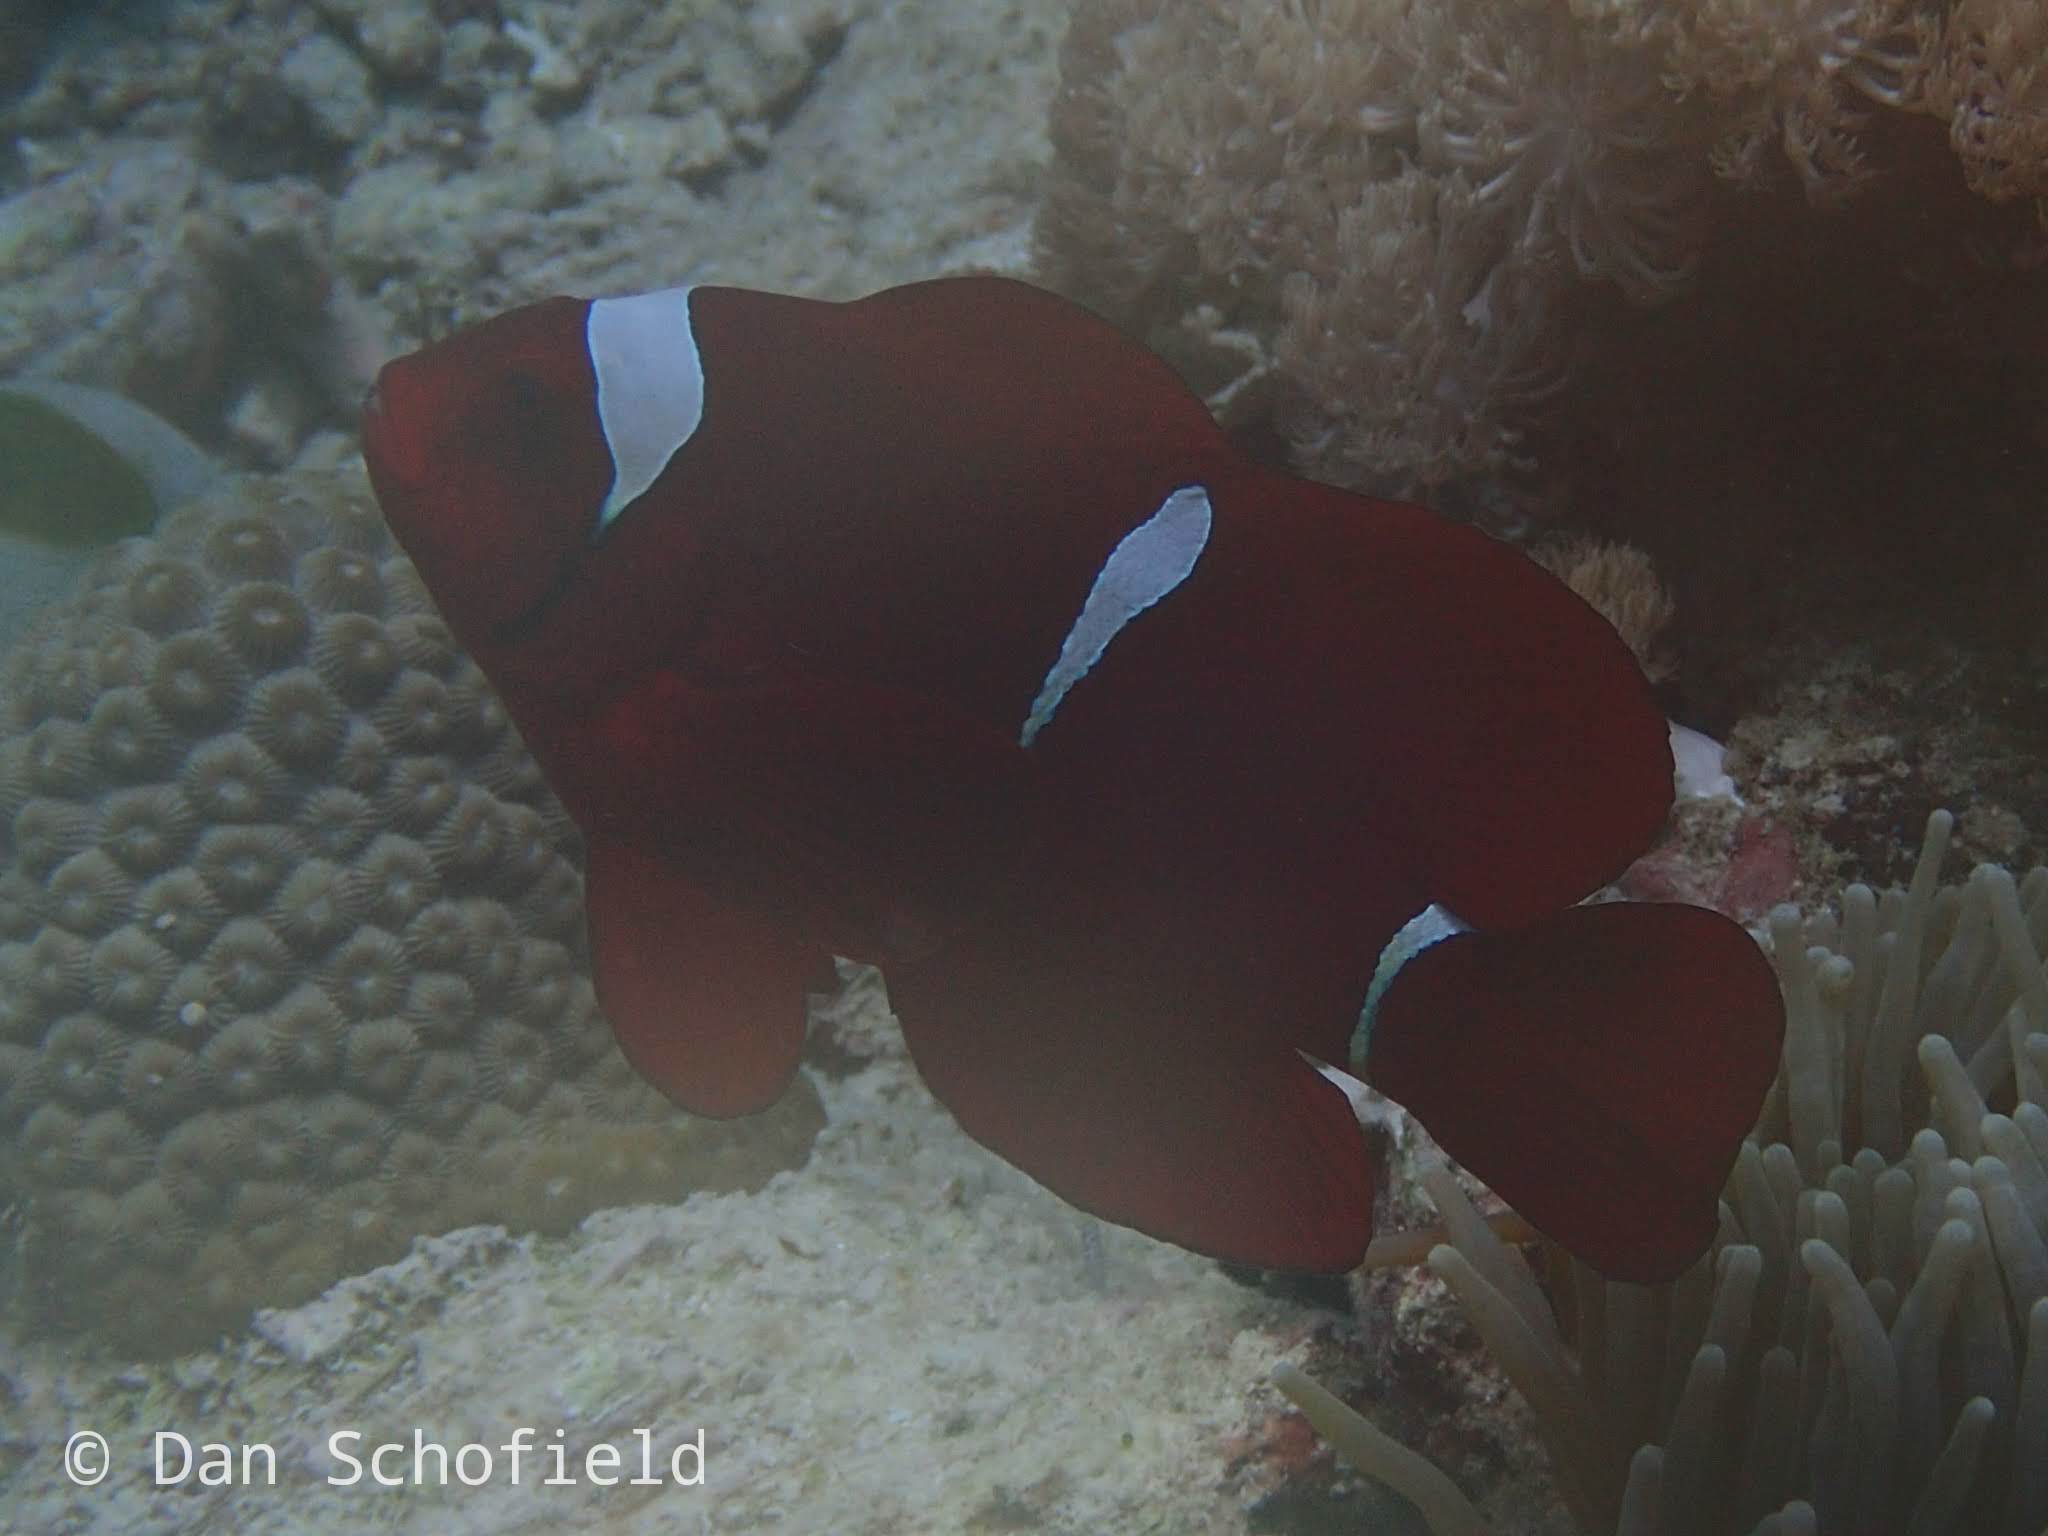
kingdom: Animalia
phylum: Chordata
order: Perciformes
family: Pomacentridae
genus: Premnas
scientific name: Premnas biaculeatus
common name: Spinecheek anemonefish
